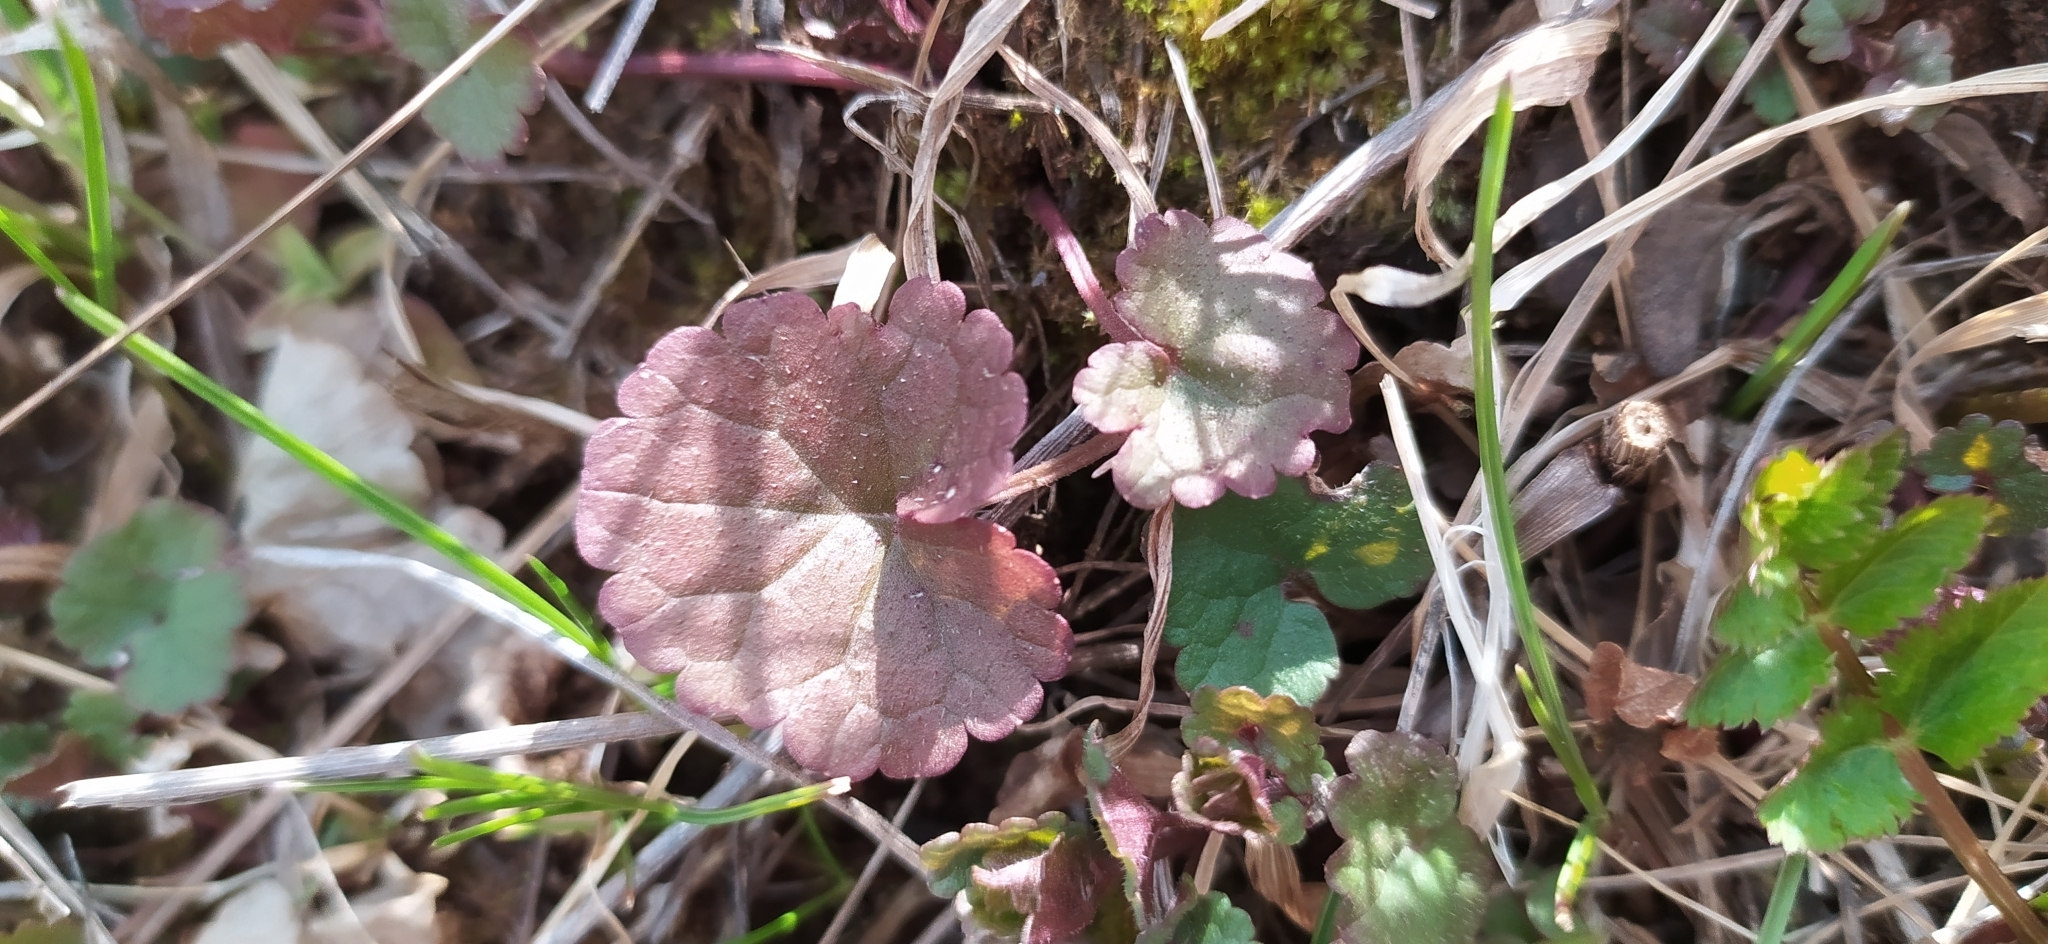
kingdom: Plantae
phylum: Tracheophyta
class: Magnoliopsida
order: Lamiales
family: Lamiaceae
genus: Glechoma
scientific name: Glechoma hederacea
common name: Ground ivy
